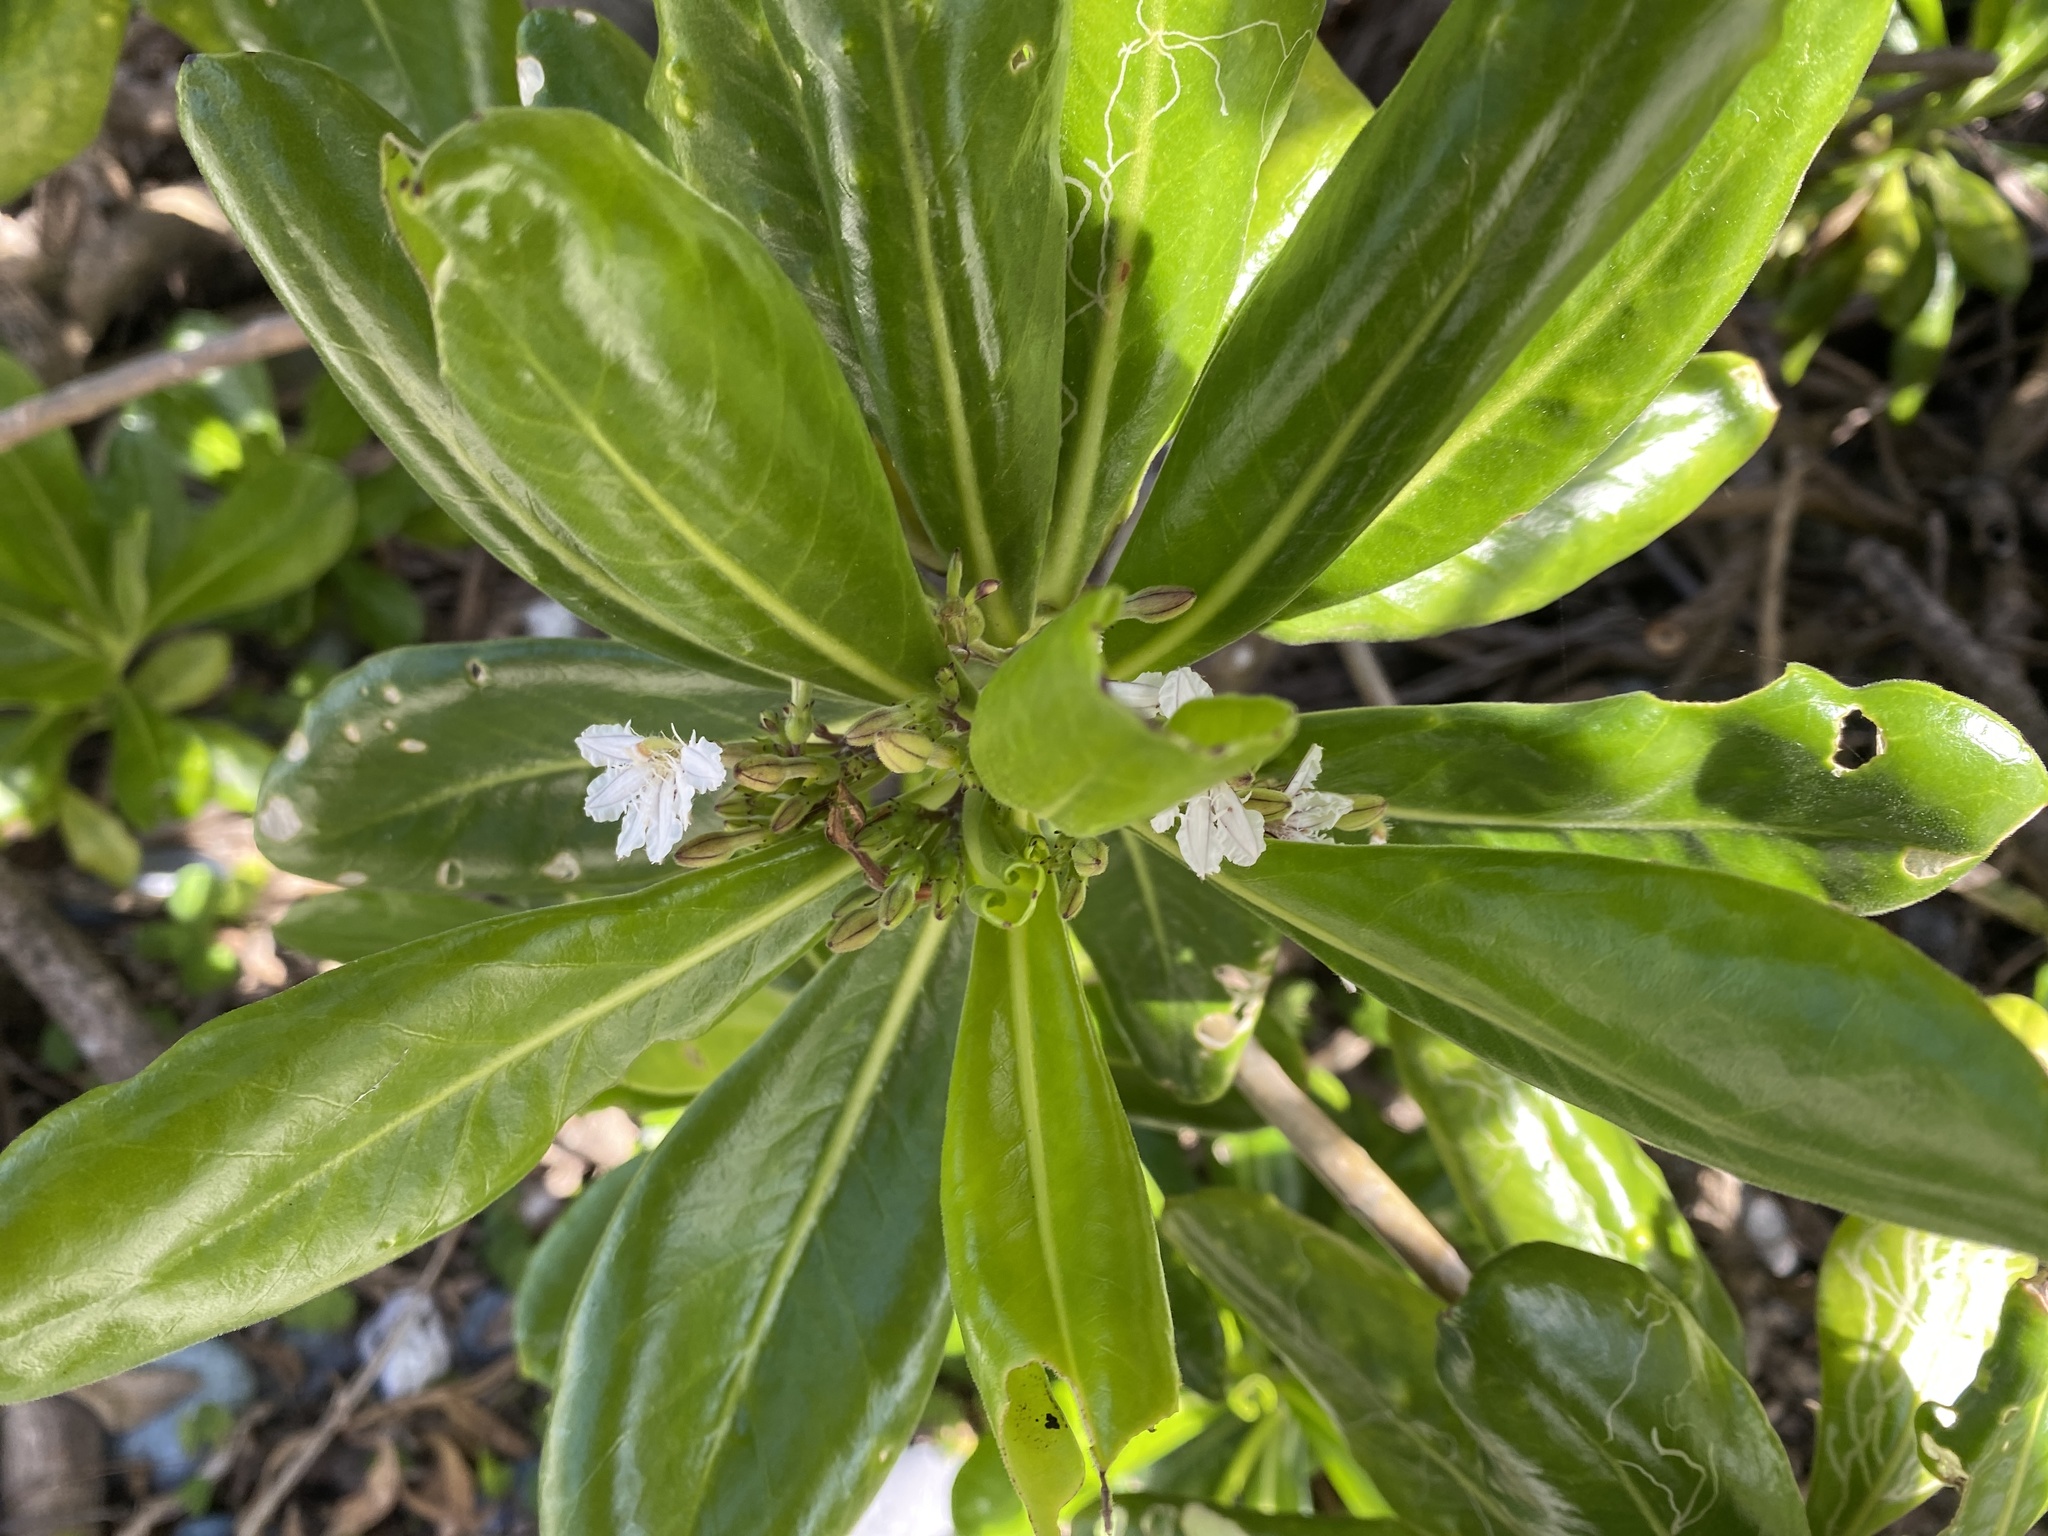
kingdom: Plantae
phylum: Tracheophyta
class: Magnoliopsida
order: Asterales
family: Goodeniaceae
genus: Scaevola
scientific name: Scaevola taccada
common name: Sea lettucetree
